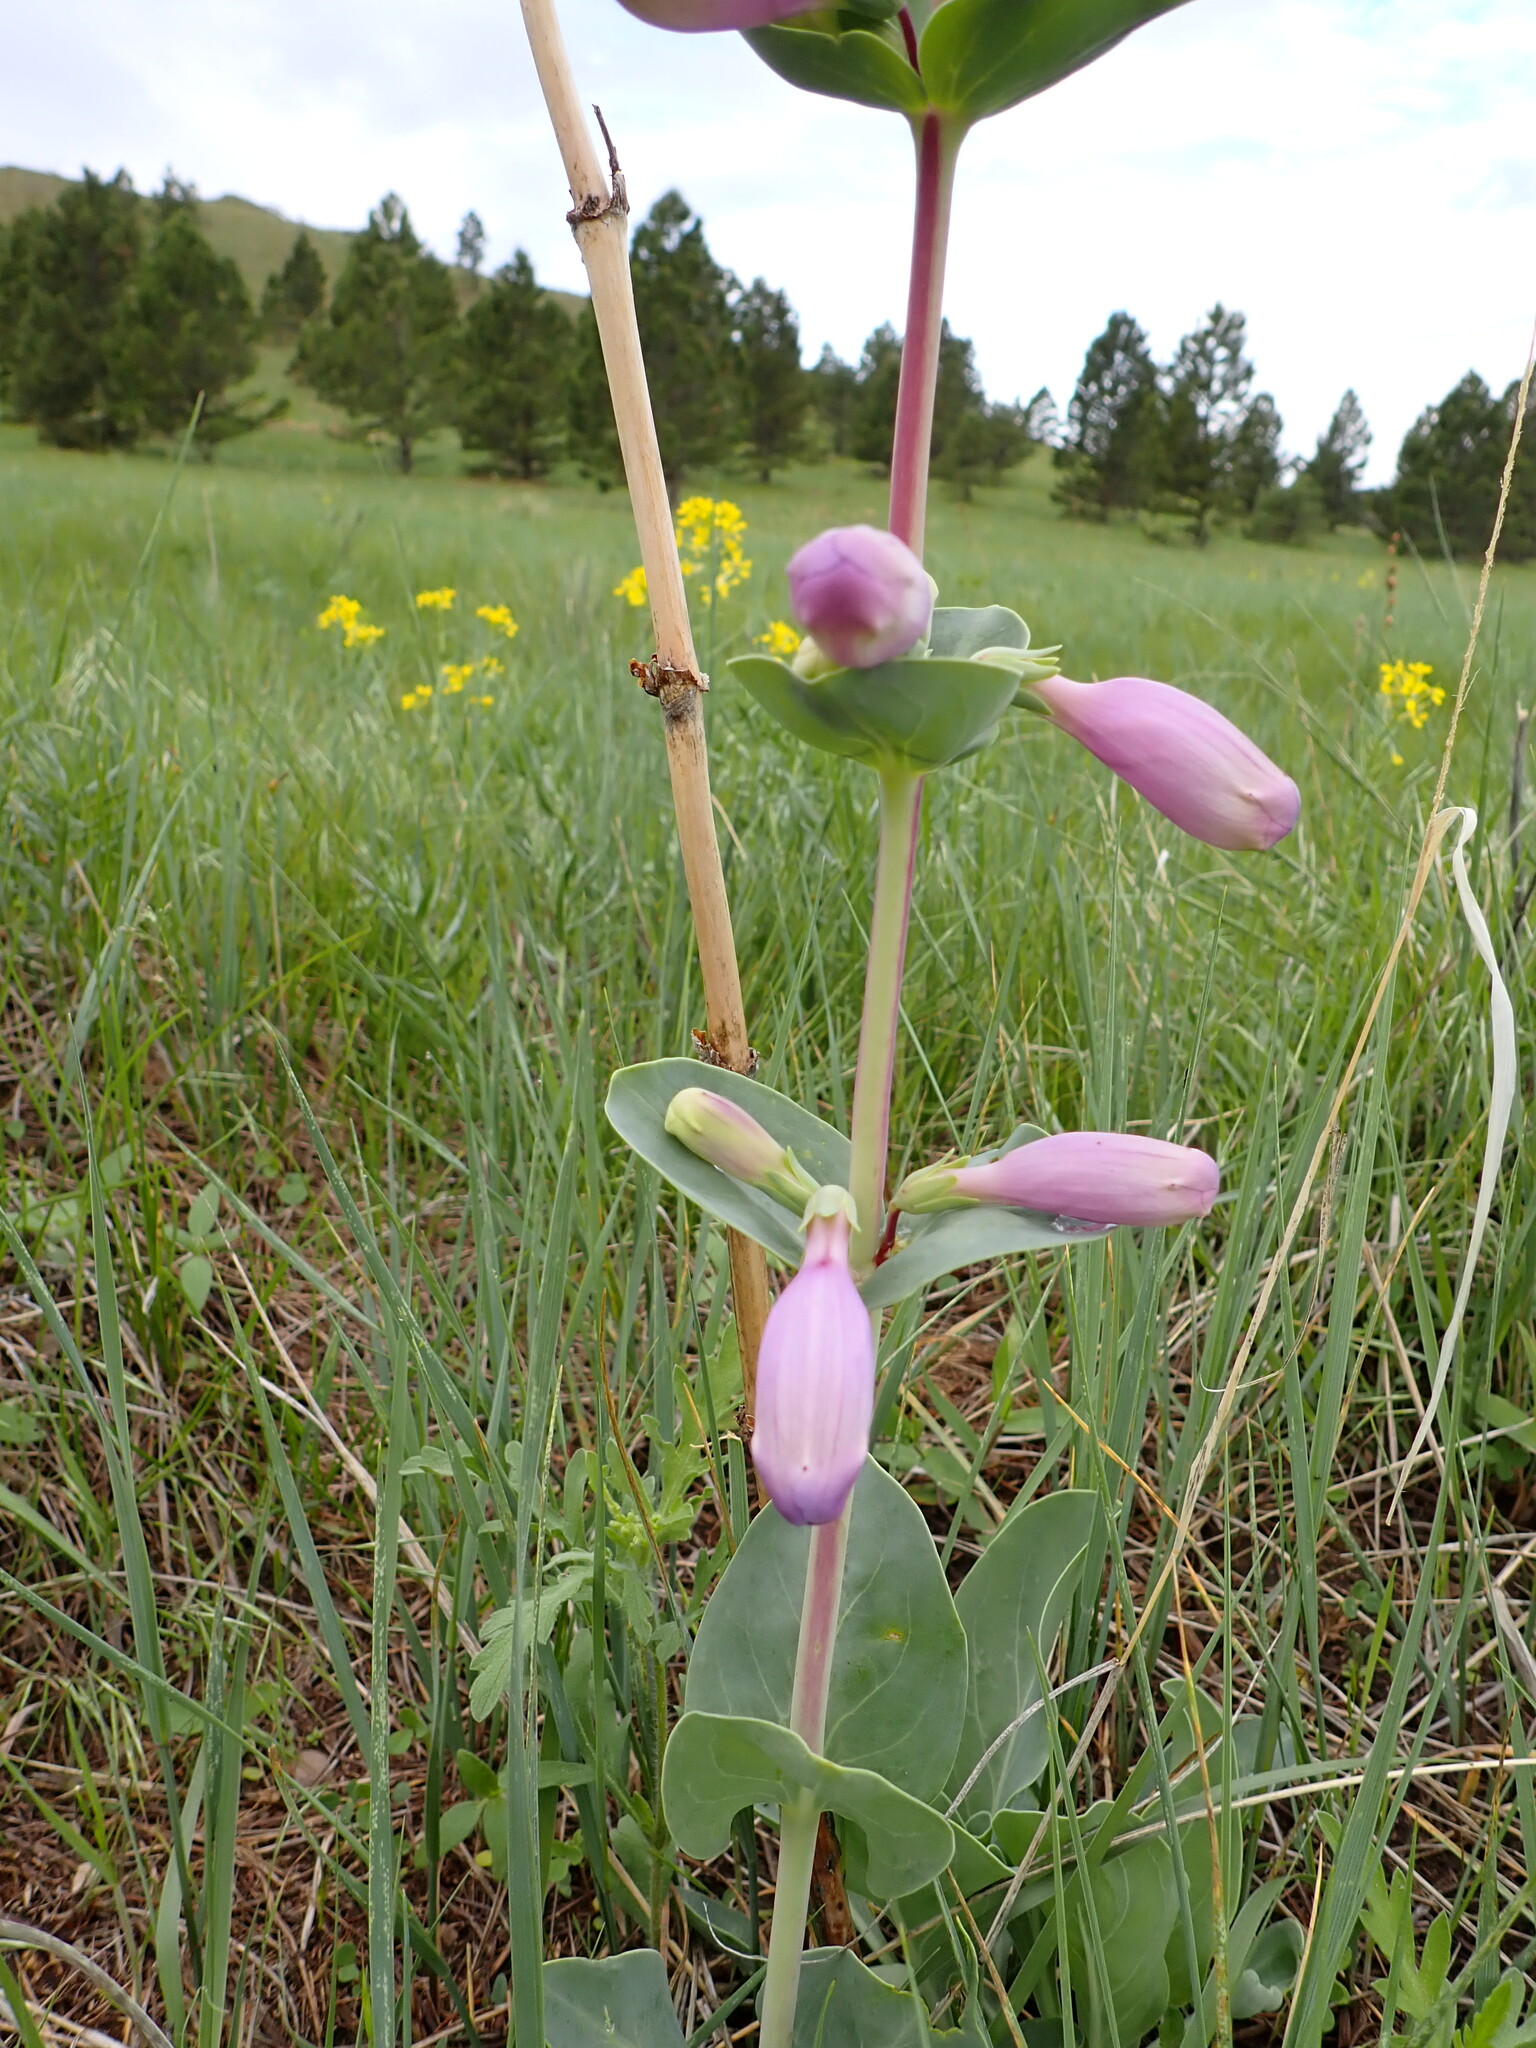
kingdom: Plantae
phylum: Tracheophyta
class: Magnoliopsida
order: Lamiales
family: Plantaginaceae
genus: Penstemon
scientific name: Penstemon
